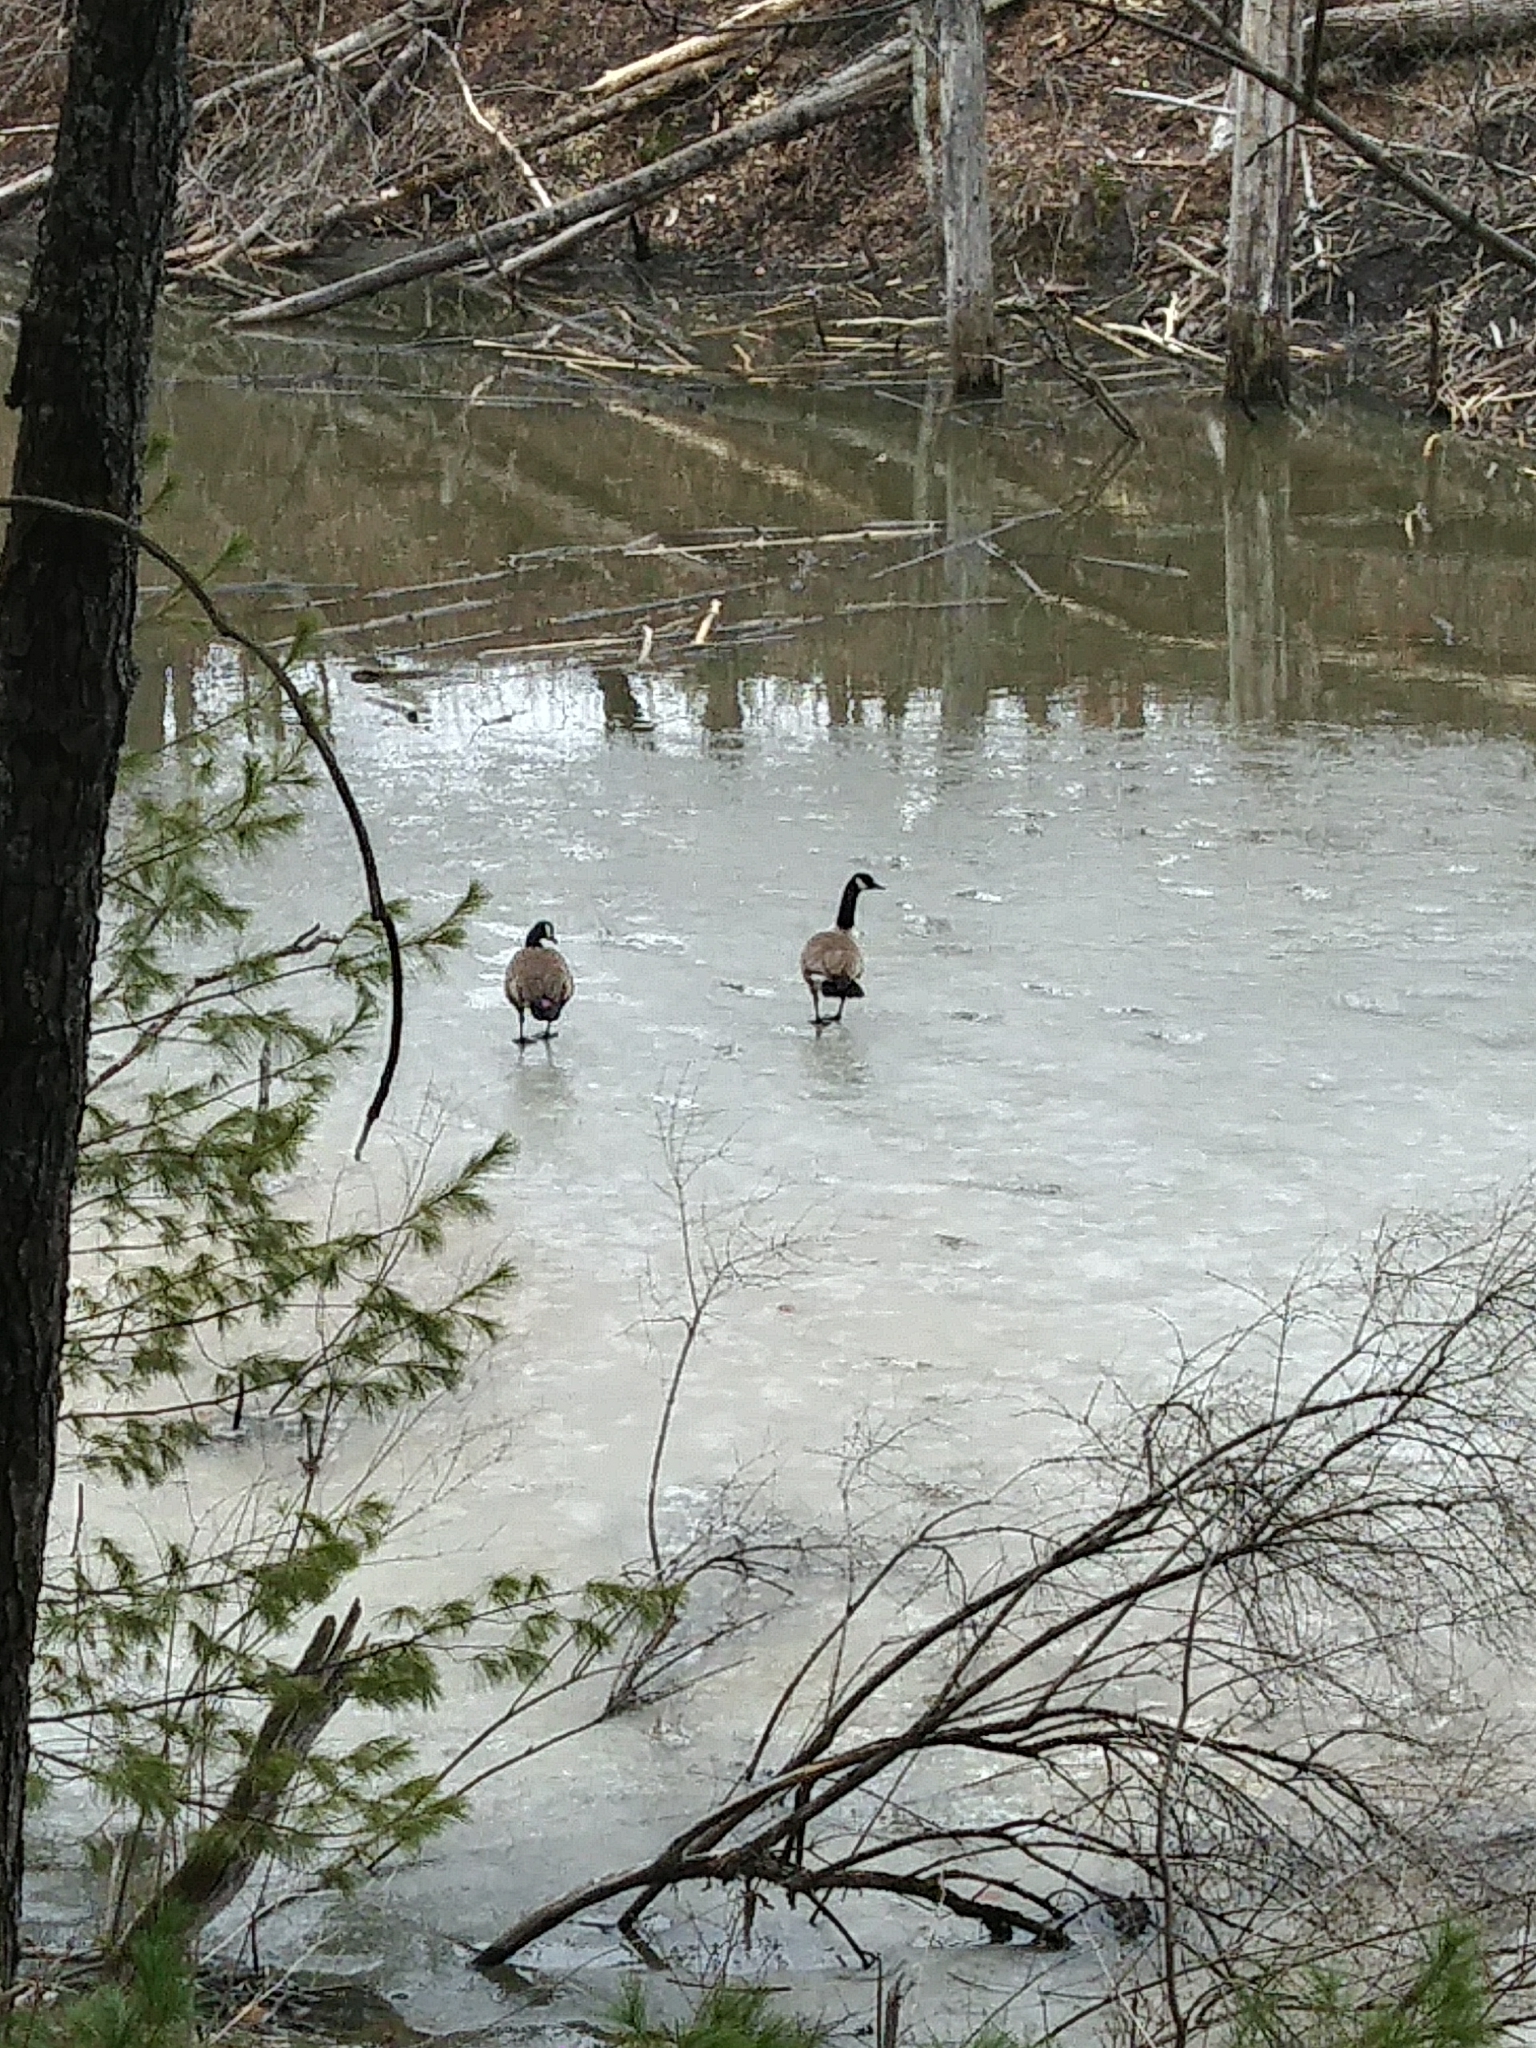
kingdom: Animalia
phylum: Chordata
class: Aves
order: Anseriformes
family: Anatidae
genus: Branta
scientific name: Branta canadensis
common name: Canada goose
